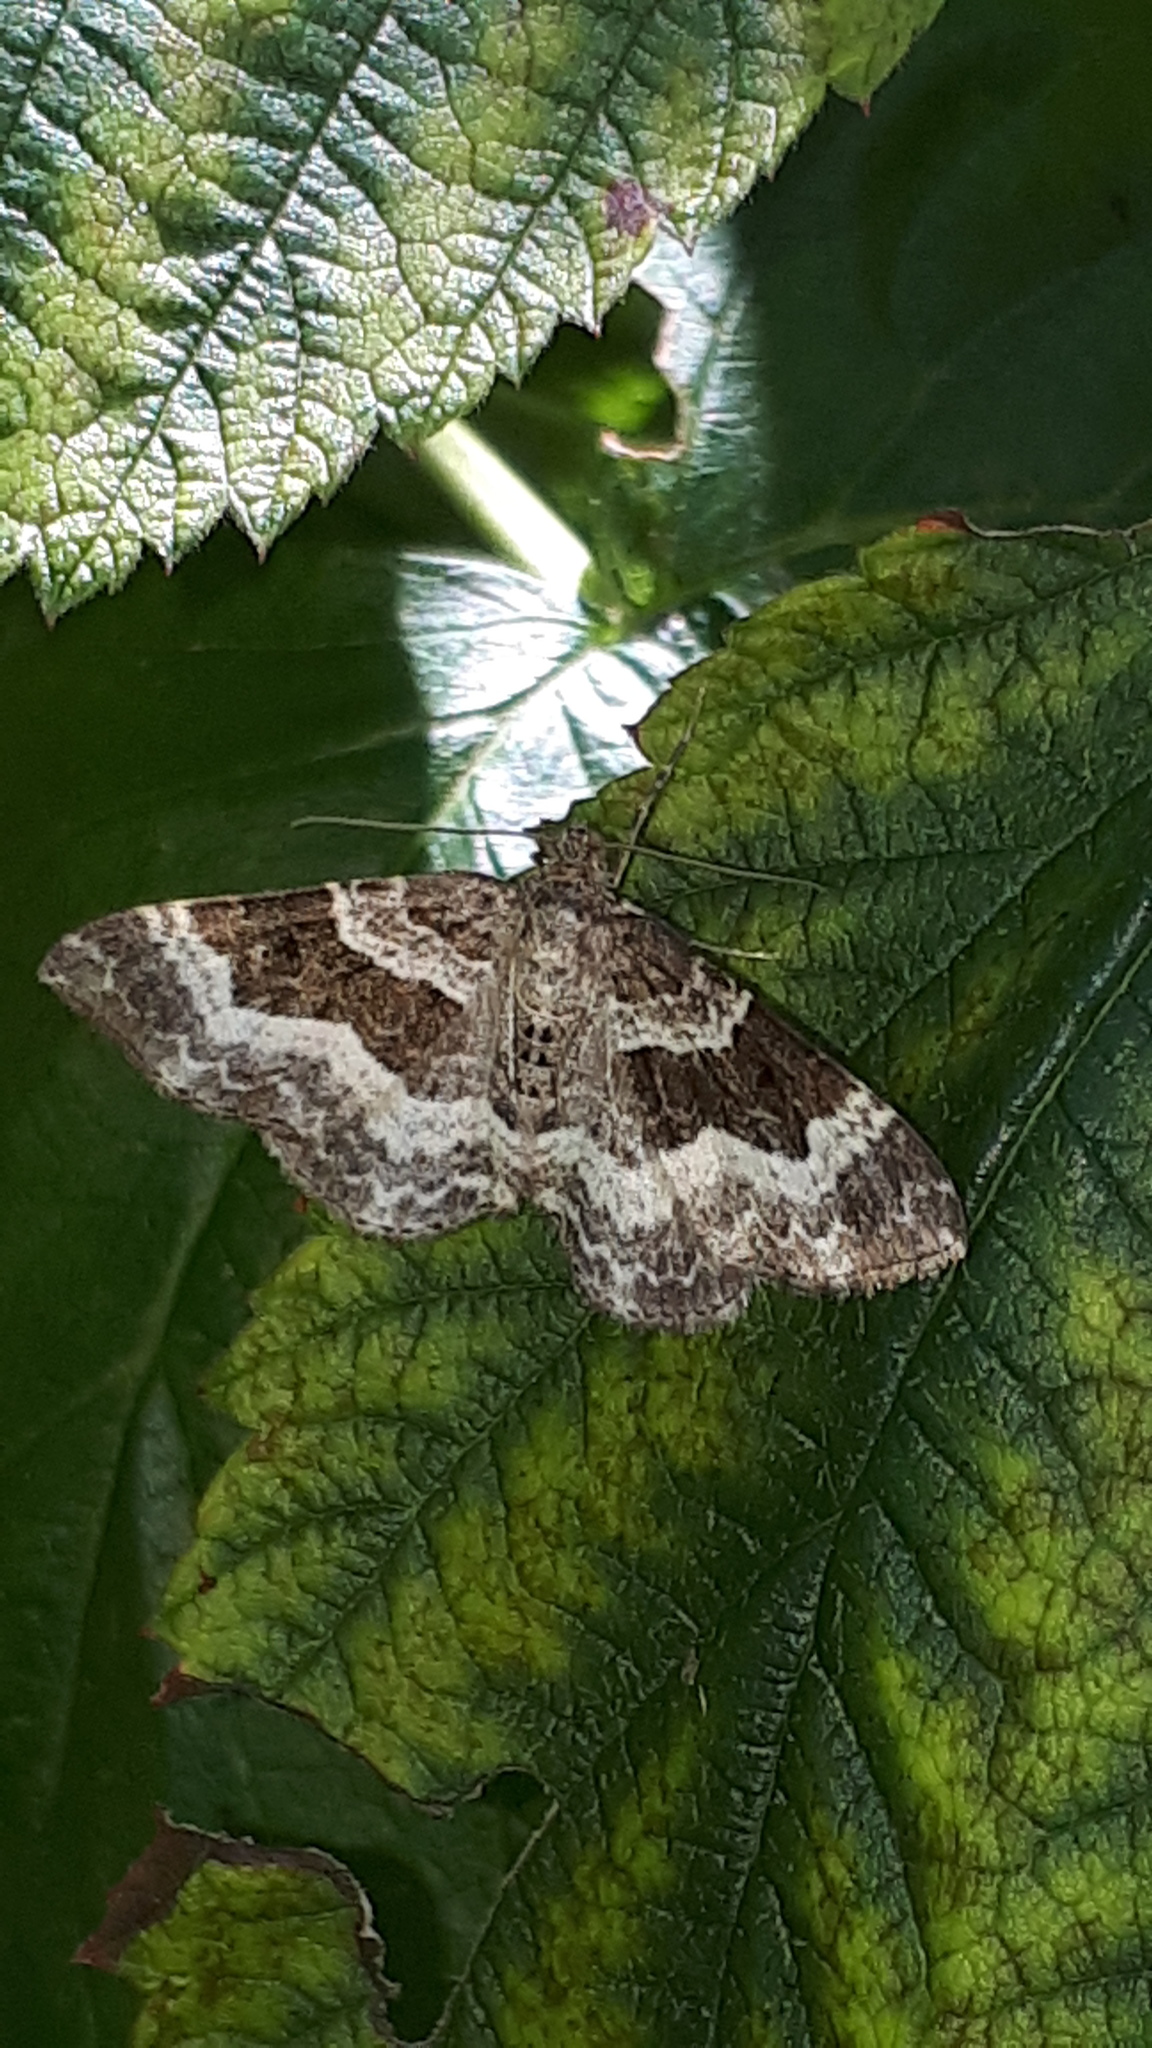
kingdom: Animalia
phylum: Arthropoda
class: Insecta
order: Lepidoptera
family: Geometridae
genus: Epirrhoe
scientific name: Epirrhoe alternata
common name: Common carpet
